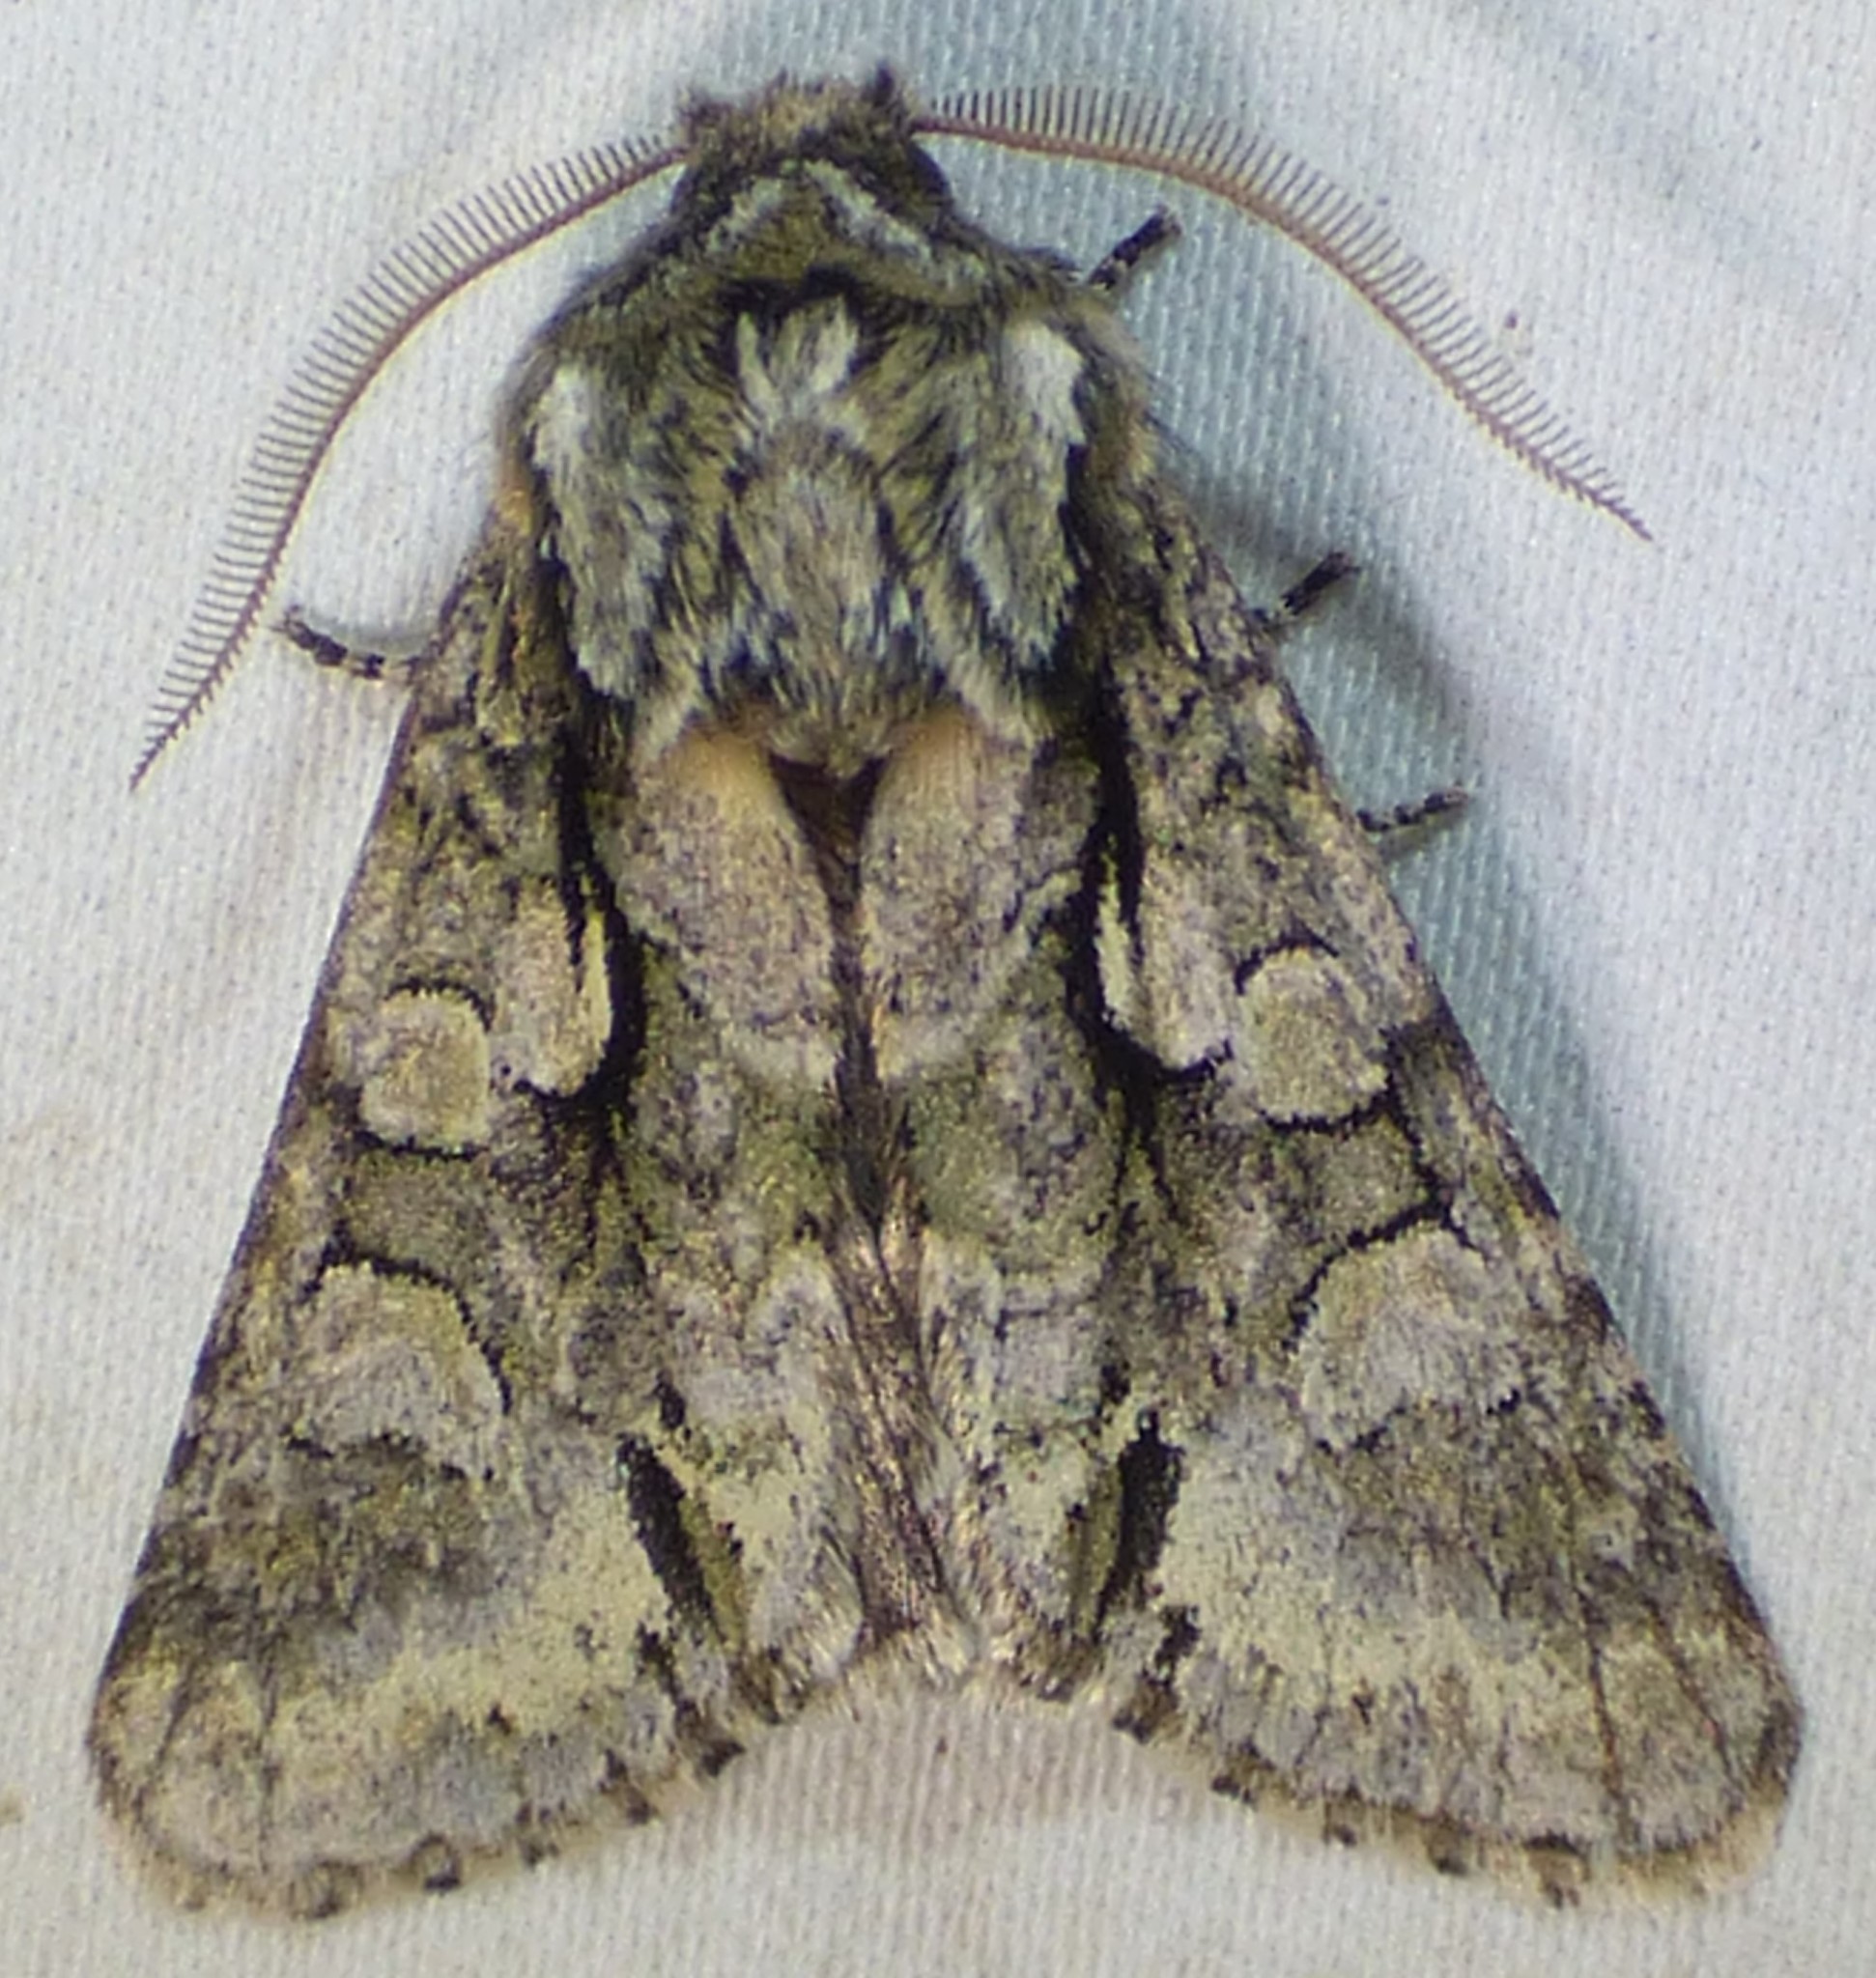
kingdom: Animalia
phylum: Arthropoda
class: Insecta
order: Lepidoptera
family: Noctuidae
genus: Psaphida
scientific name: Psaphida resumens
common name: Figure-eight sallow
